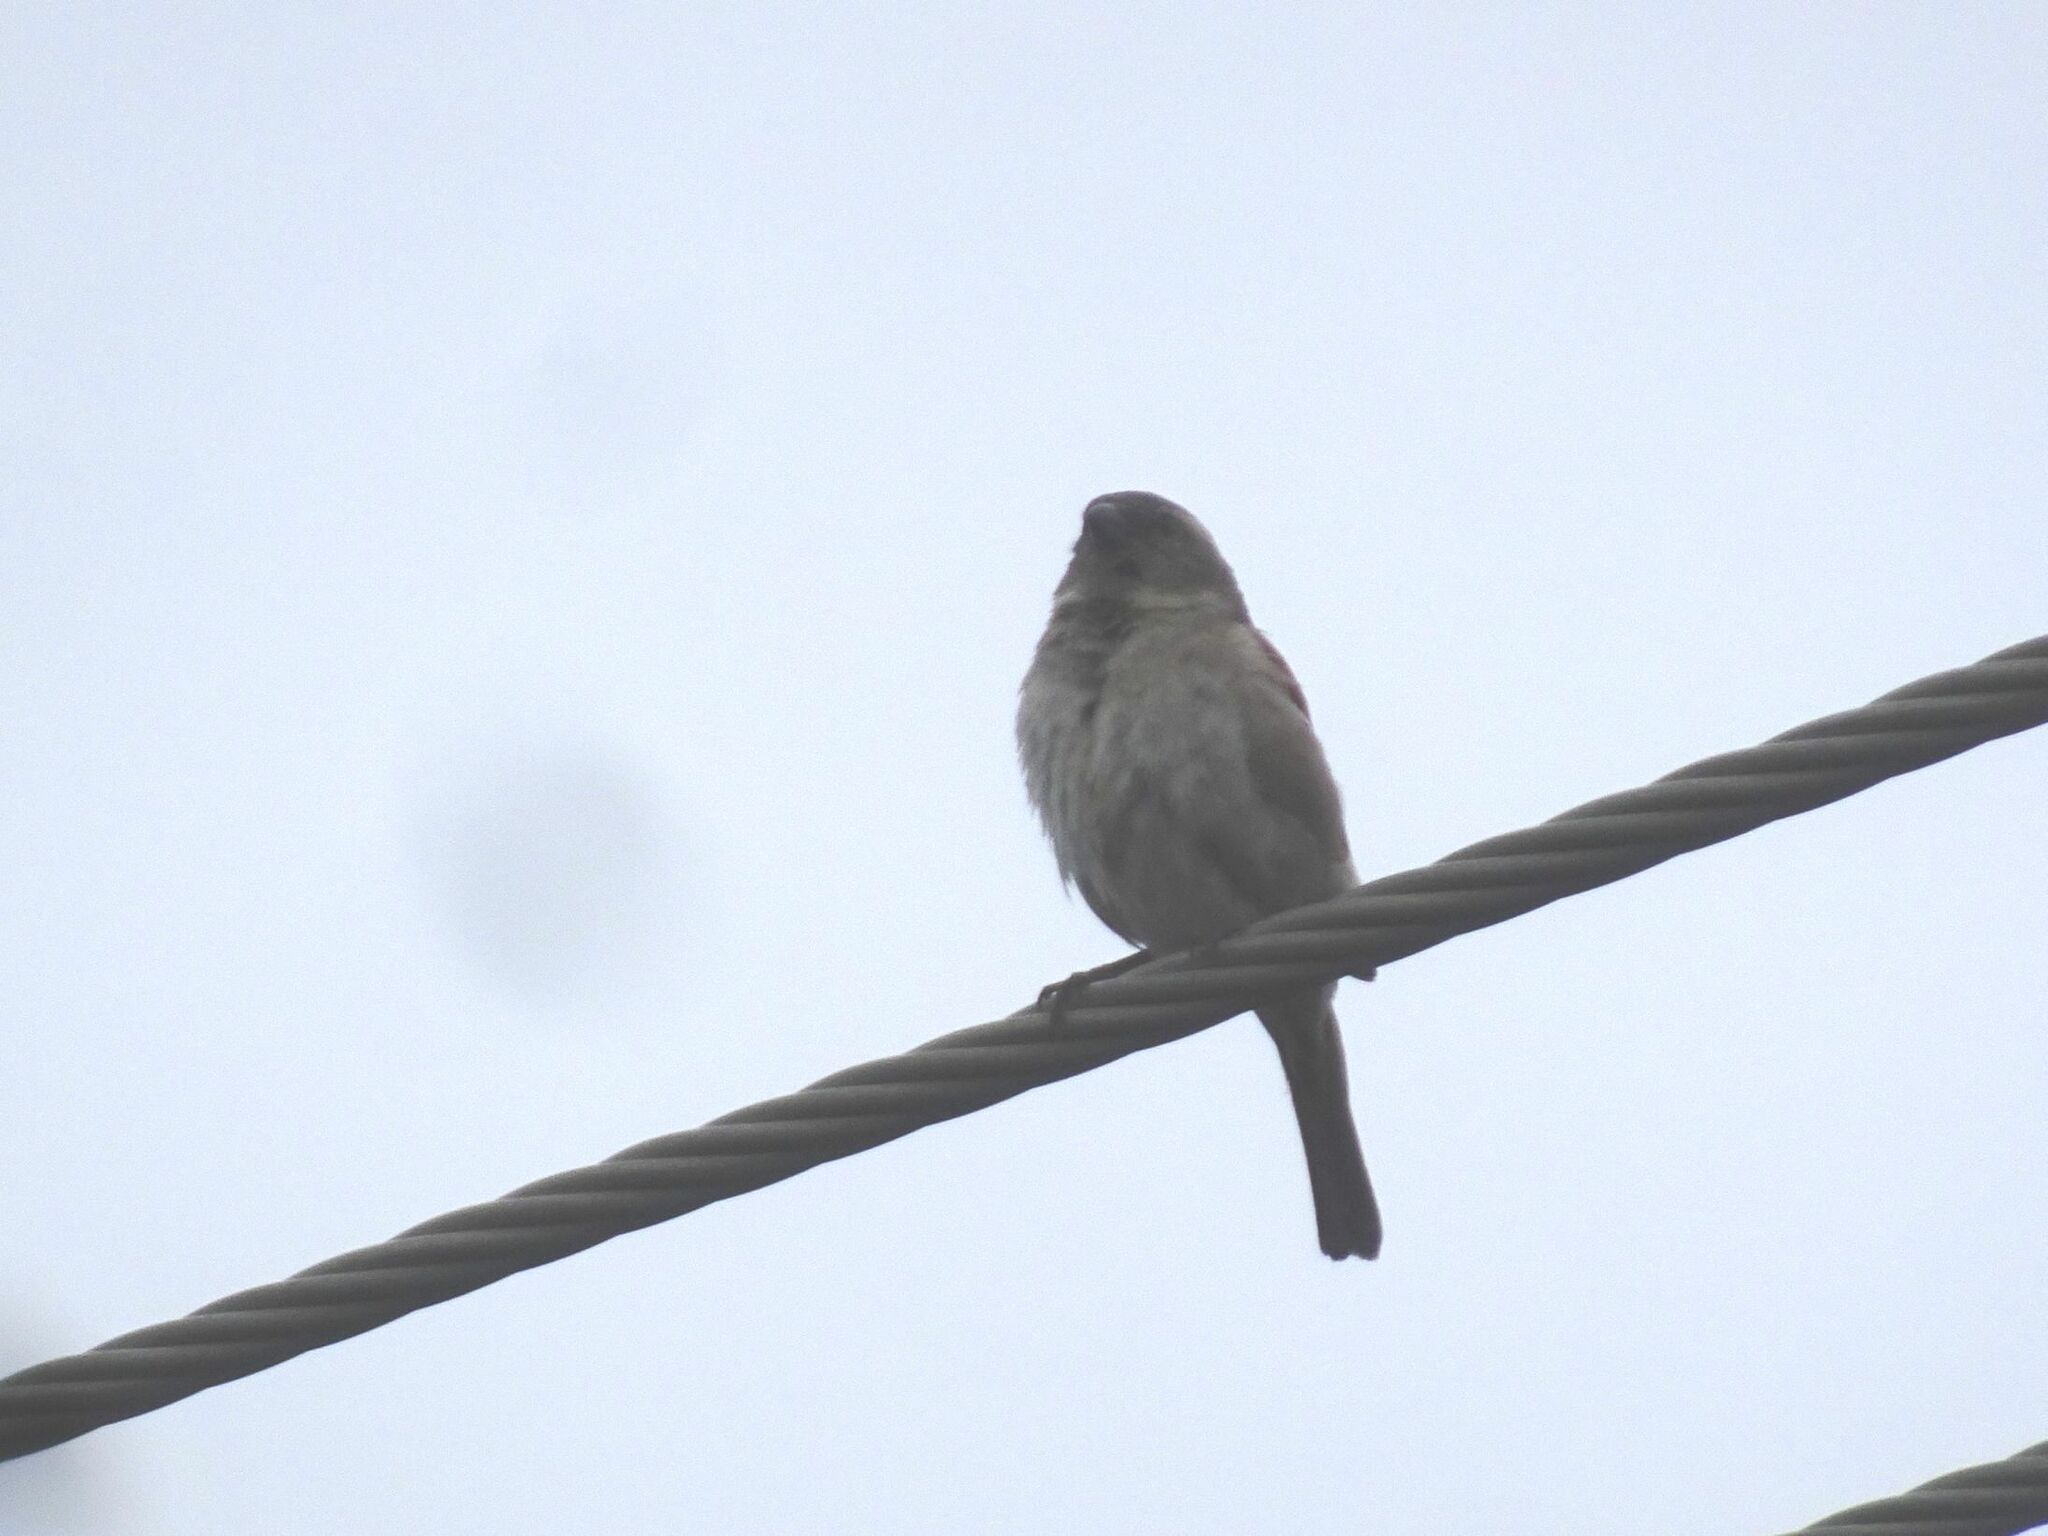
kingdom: Animalia
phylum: Chordata
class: Aves
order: Passeriformes
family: Passeridae
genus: Passer
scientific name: Passer melanurus
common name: Cape sparrow
